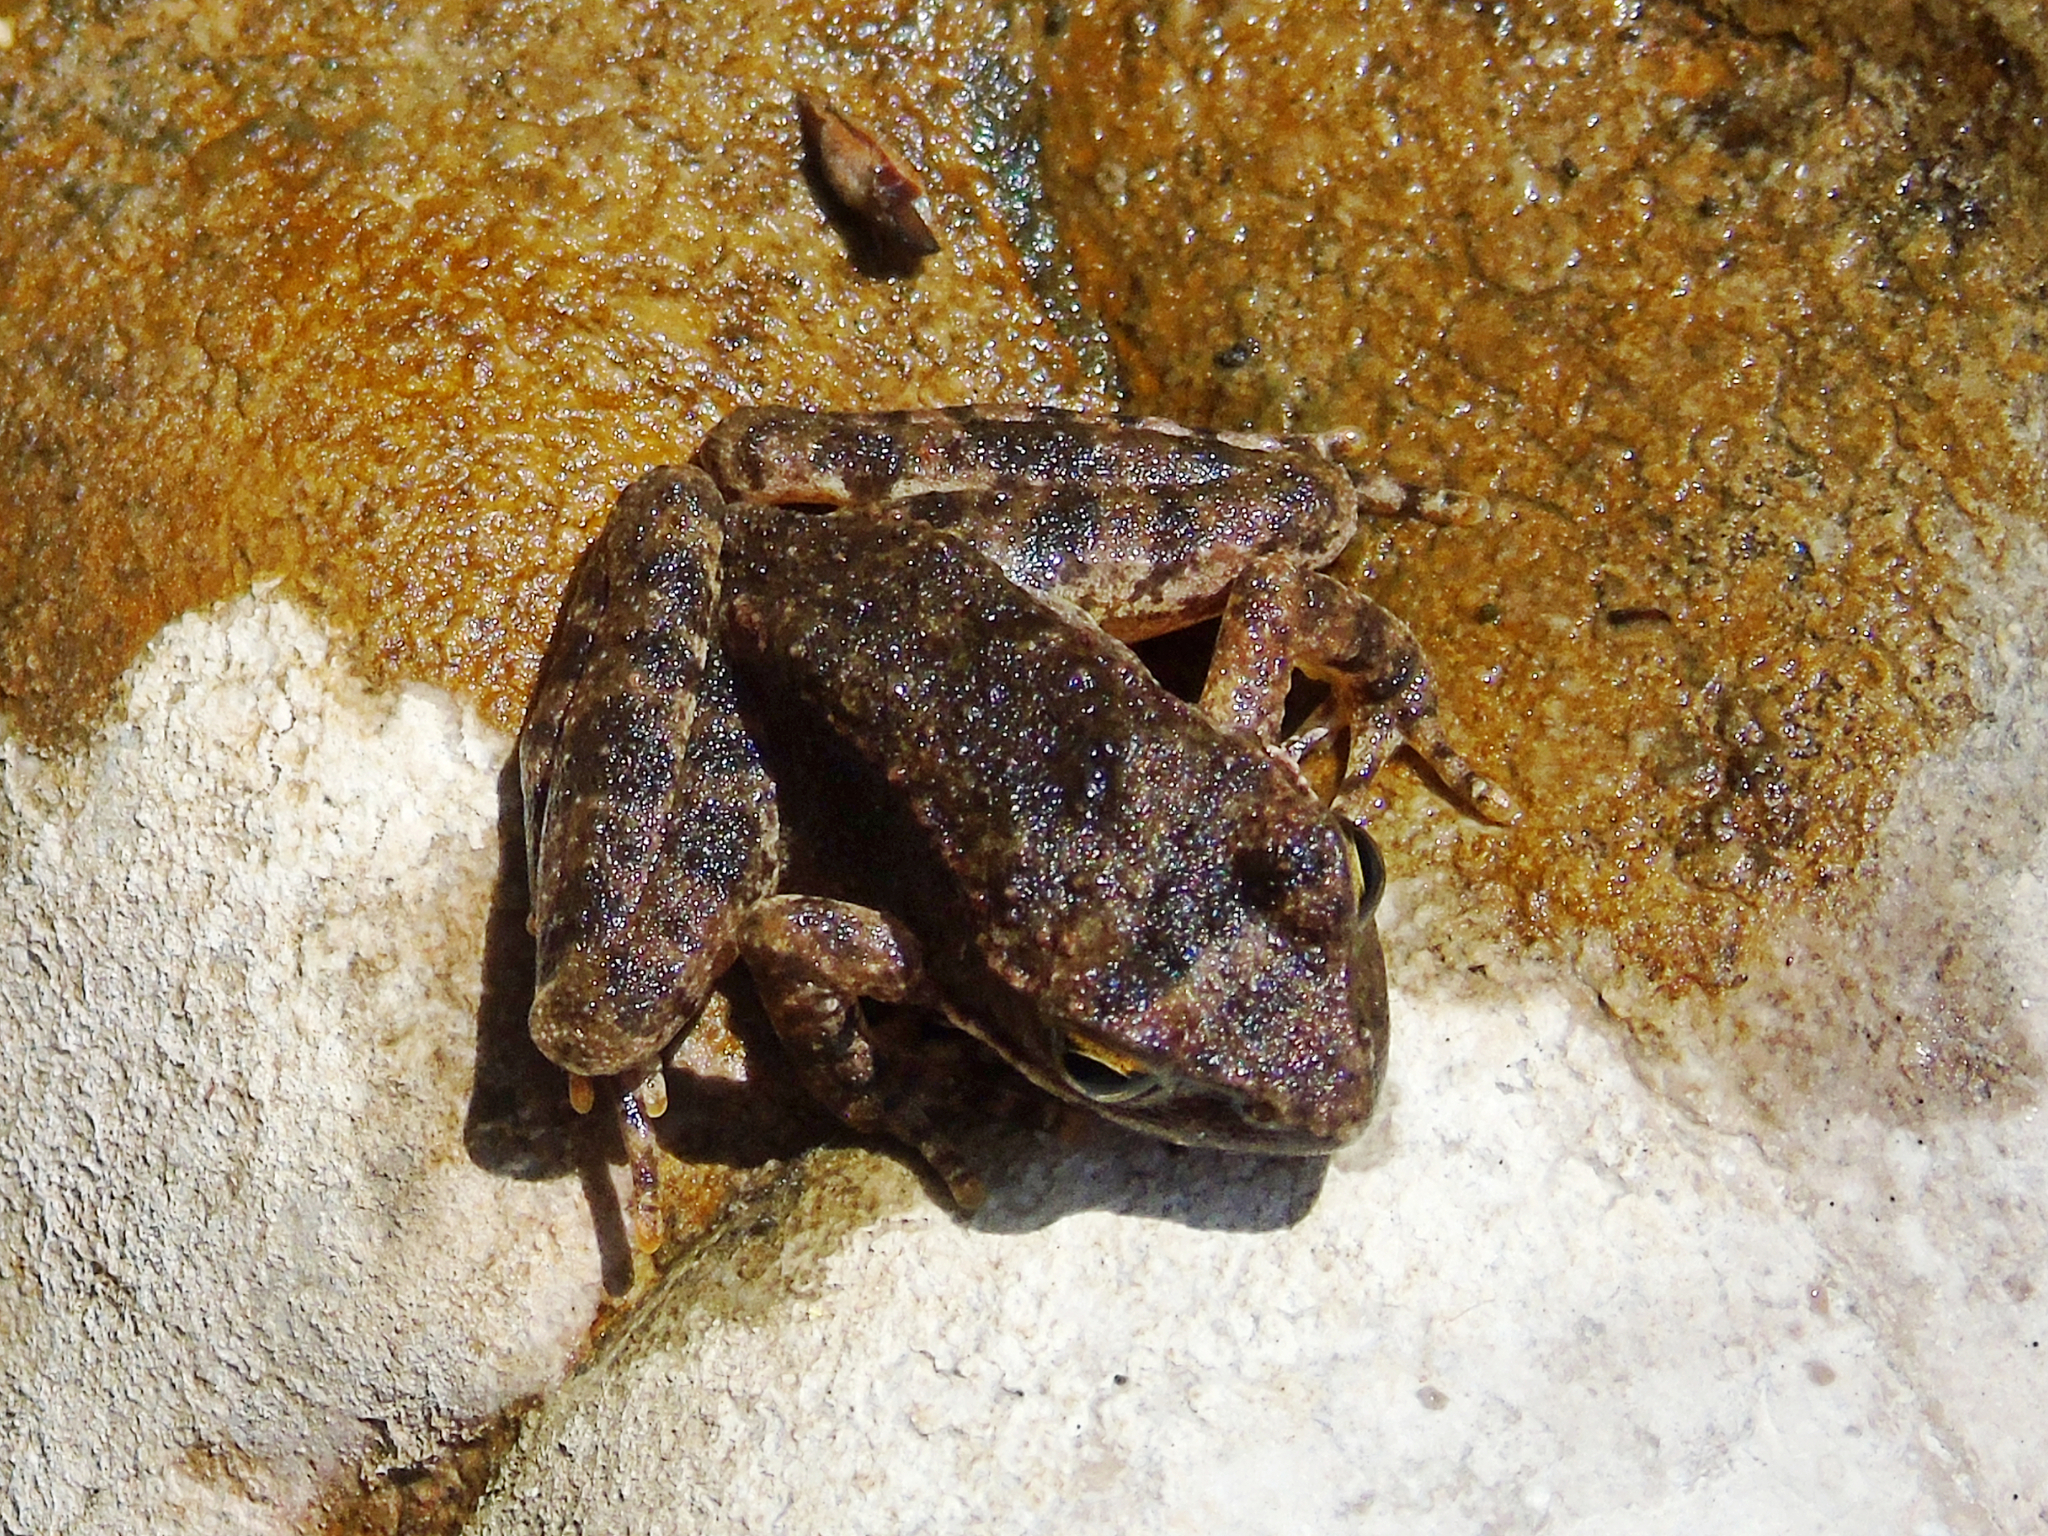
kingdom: Animalia
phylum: Chordata
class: Amphibia
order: Anura
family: Ranidae
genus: Rana
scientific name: Rana graeca
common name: Greek stream frog
